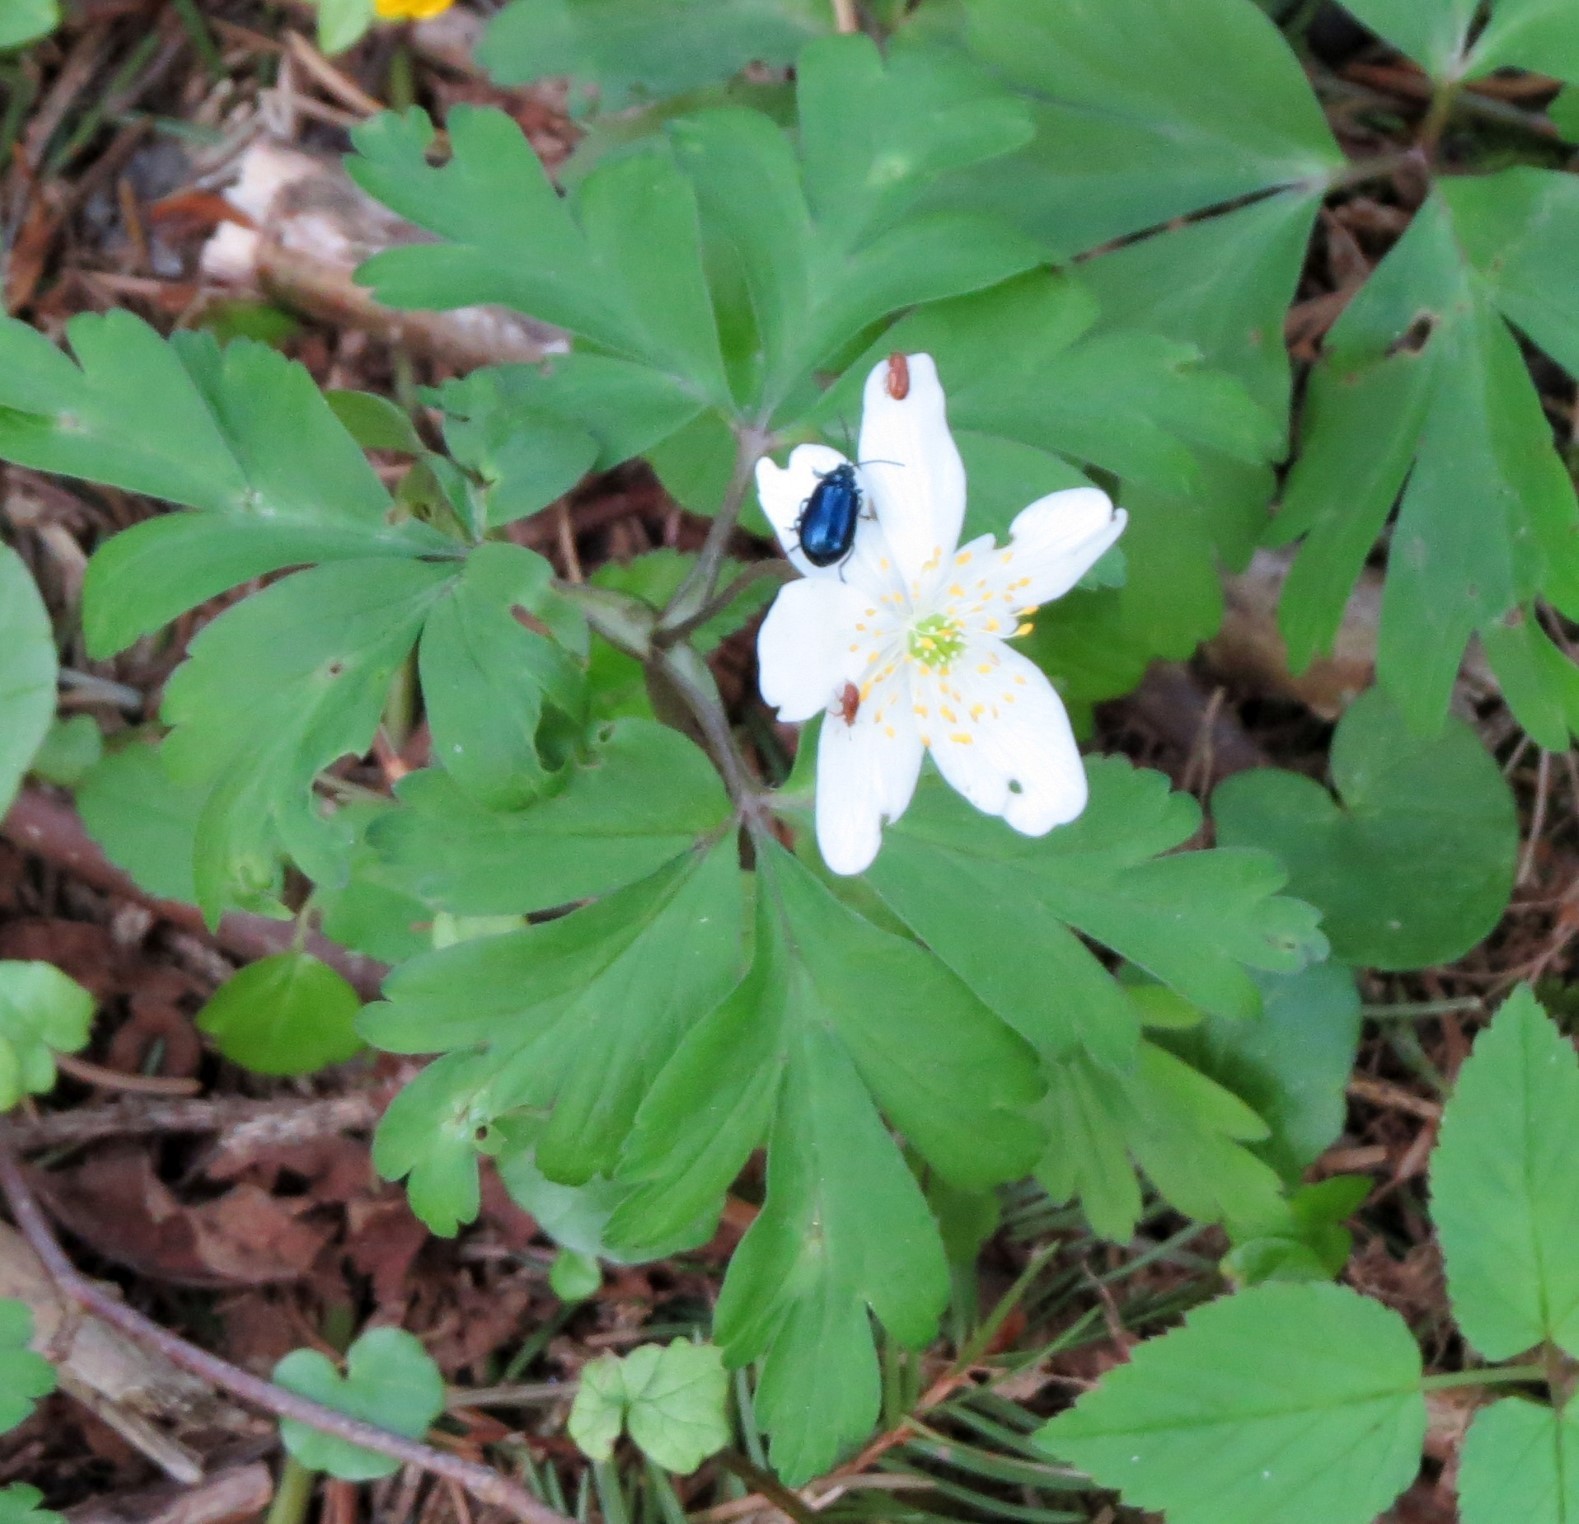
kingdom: Plantae
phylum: Tracheophyta
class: Magnoliopsida
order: Ranunculales
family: Ranunculaceae
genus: Anemone
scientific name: Anemone nemorosa
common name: Wood anemone
